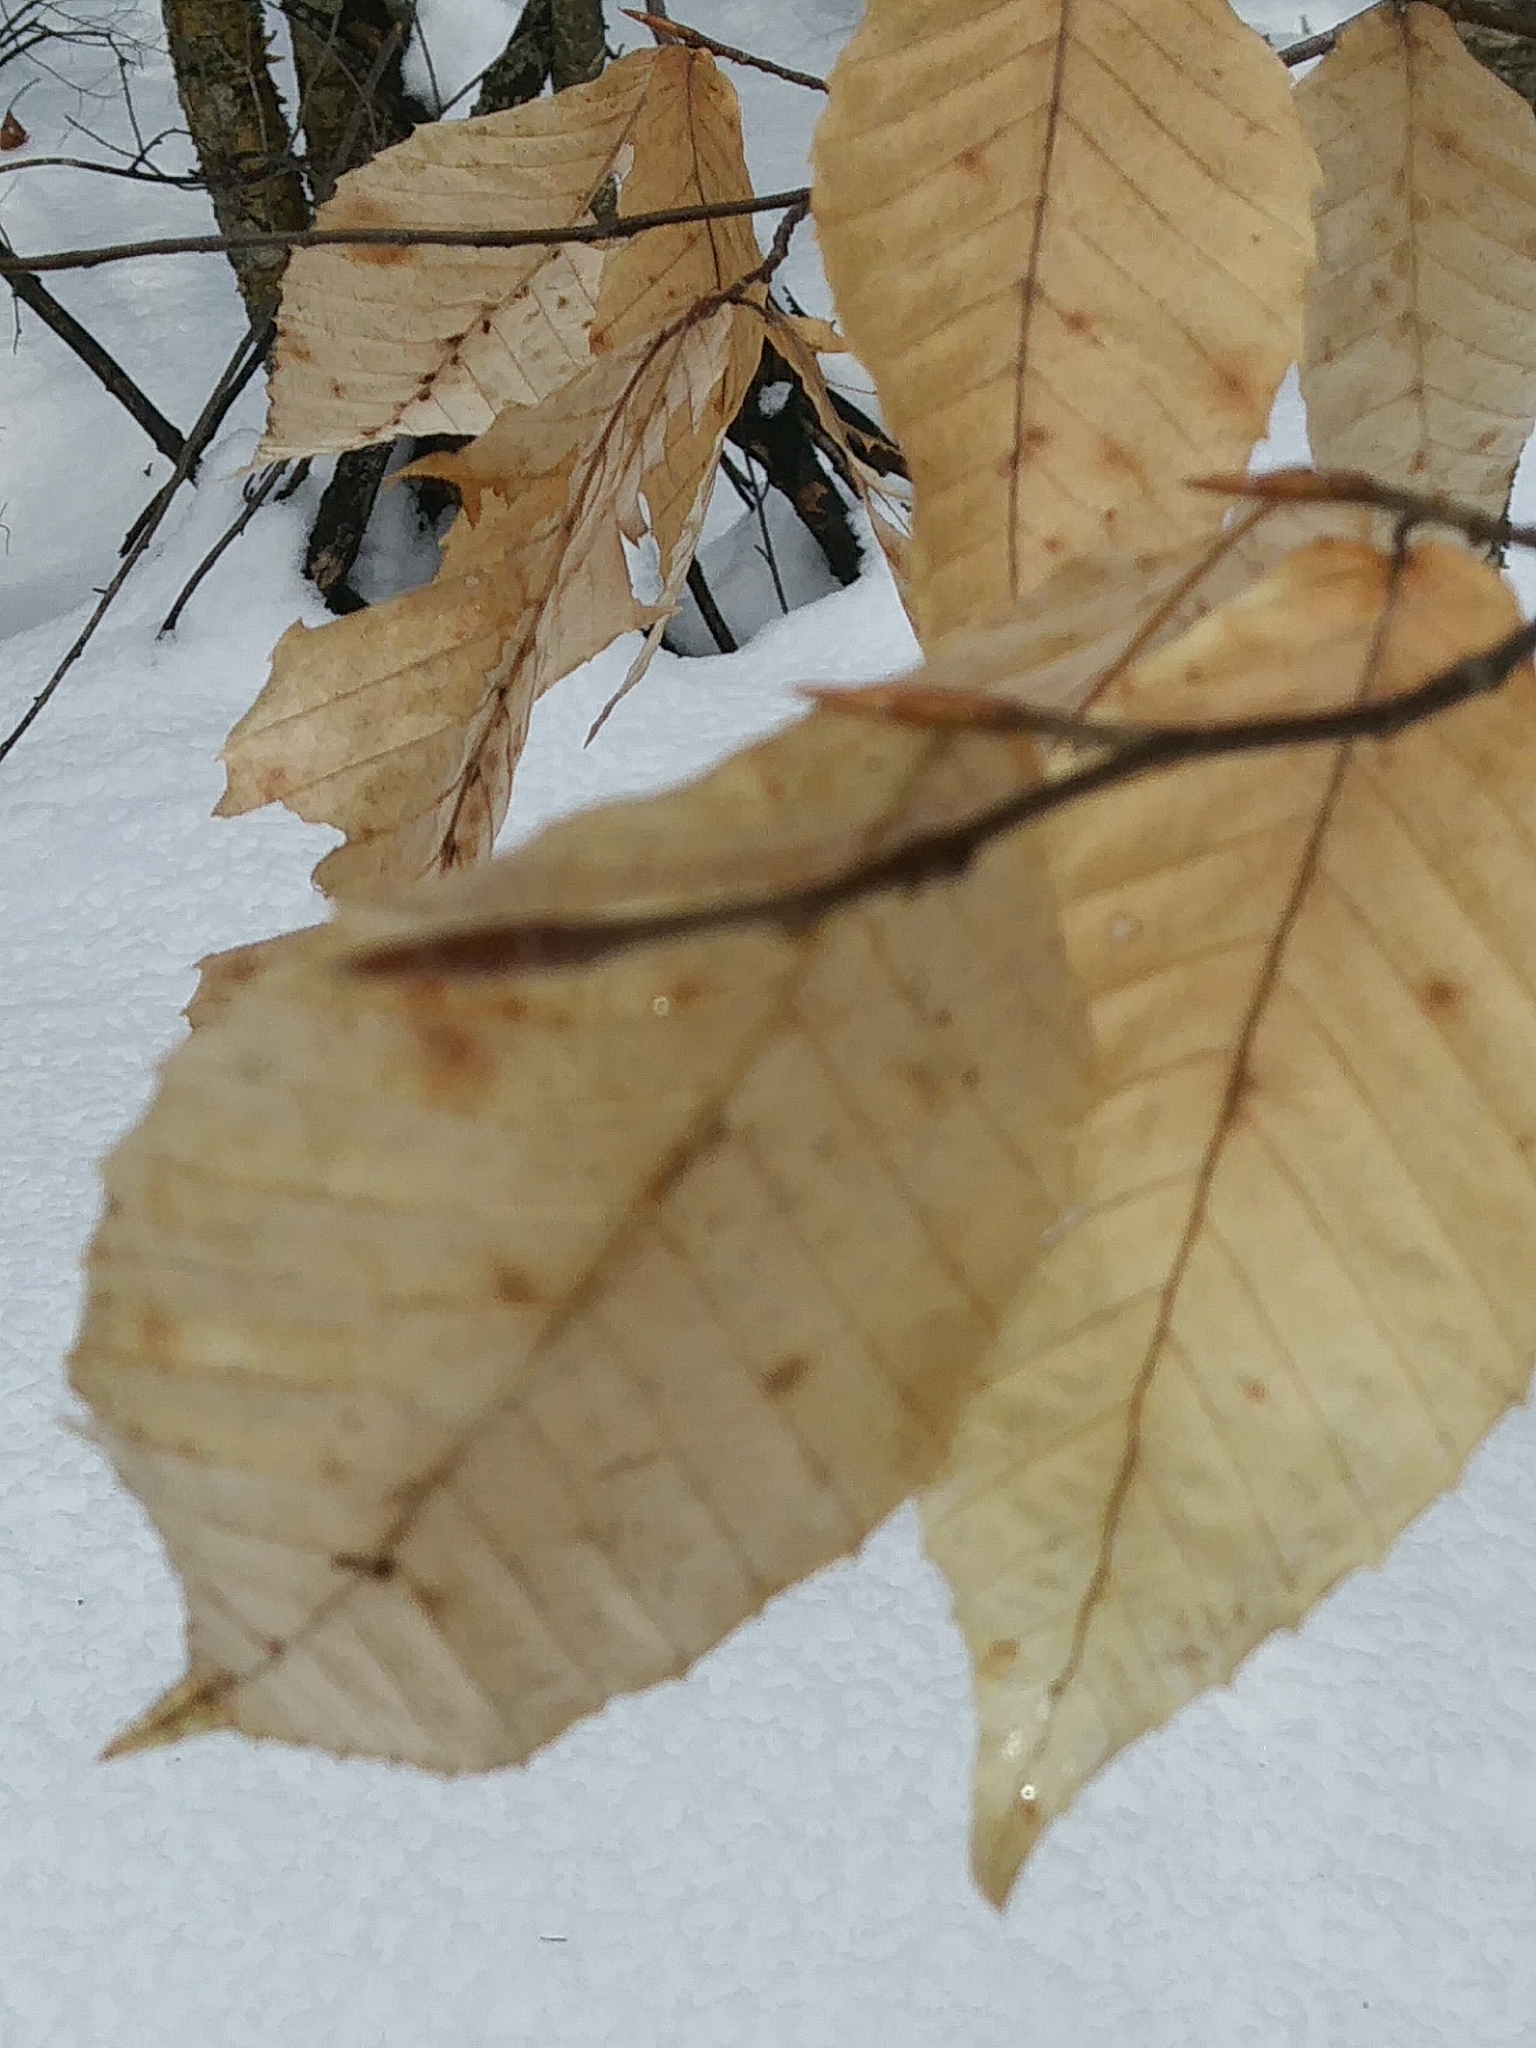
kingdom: Plantae
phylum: Tracheophyta
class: Magnoliopsida
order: Fagales
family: Fagaceae
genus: Fagus
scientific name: Fagus grandifolia
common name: American beech
